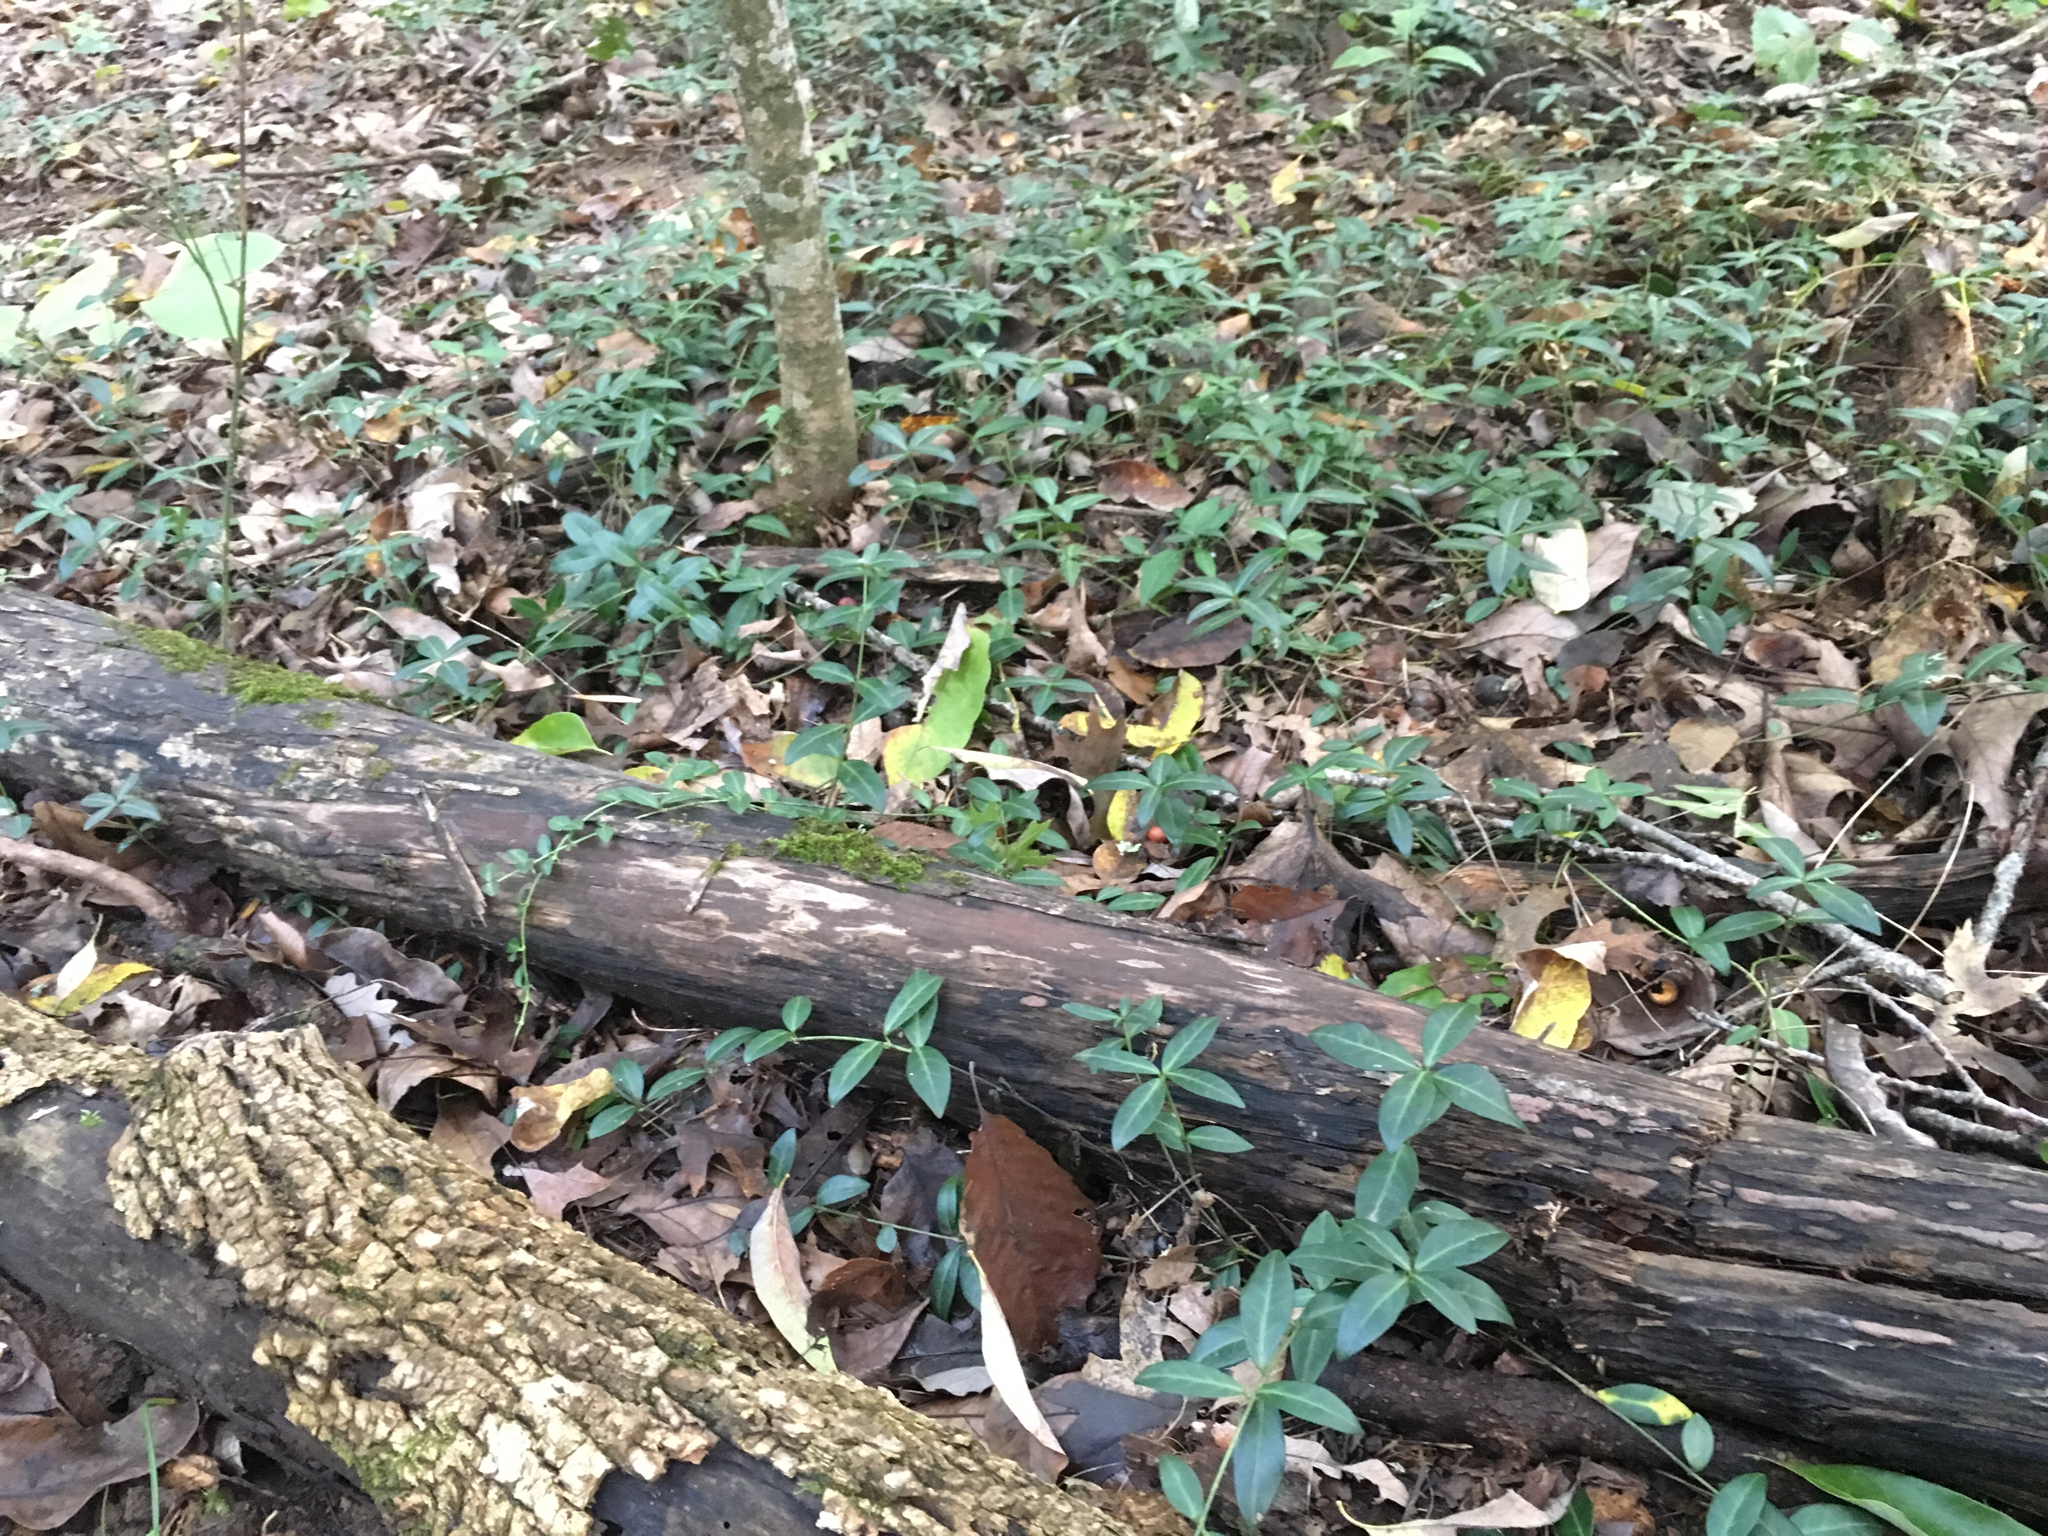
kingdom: Plantae
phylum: Tracheophyta
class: Magnoliopsida
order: Gentianales
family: Apocynaceae
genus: Vinca
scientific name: Vinca minor
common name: Lesser periwinkle
